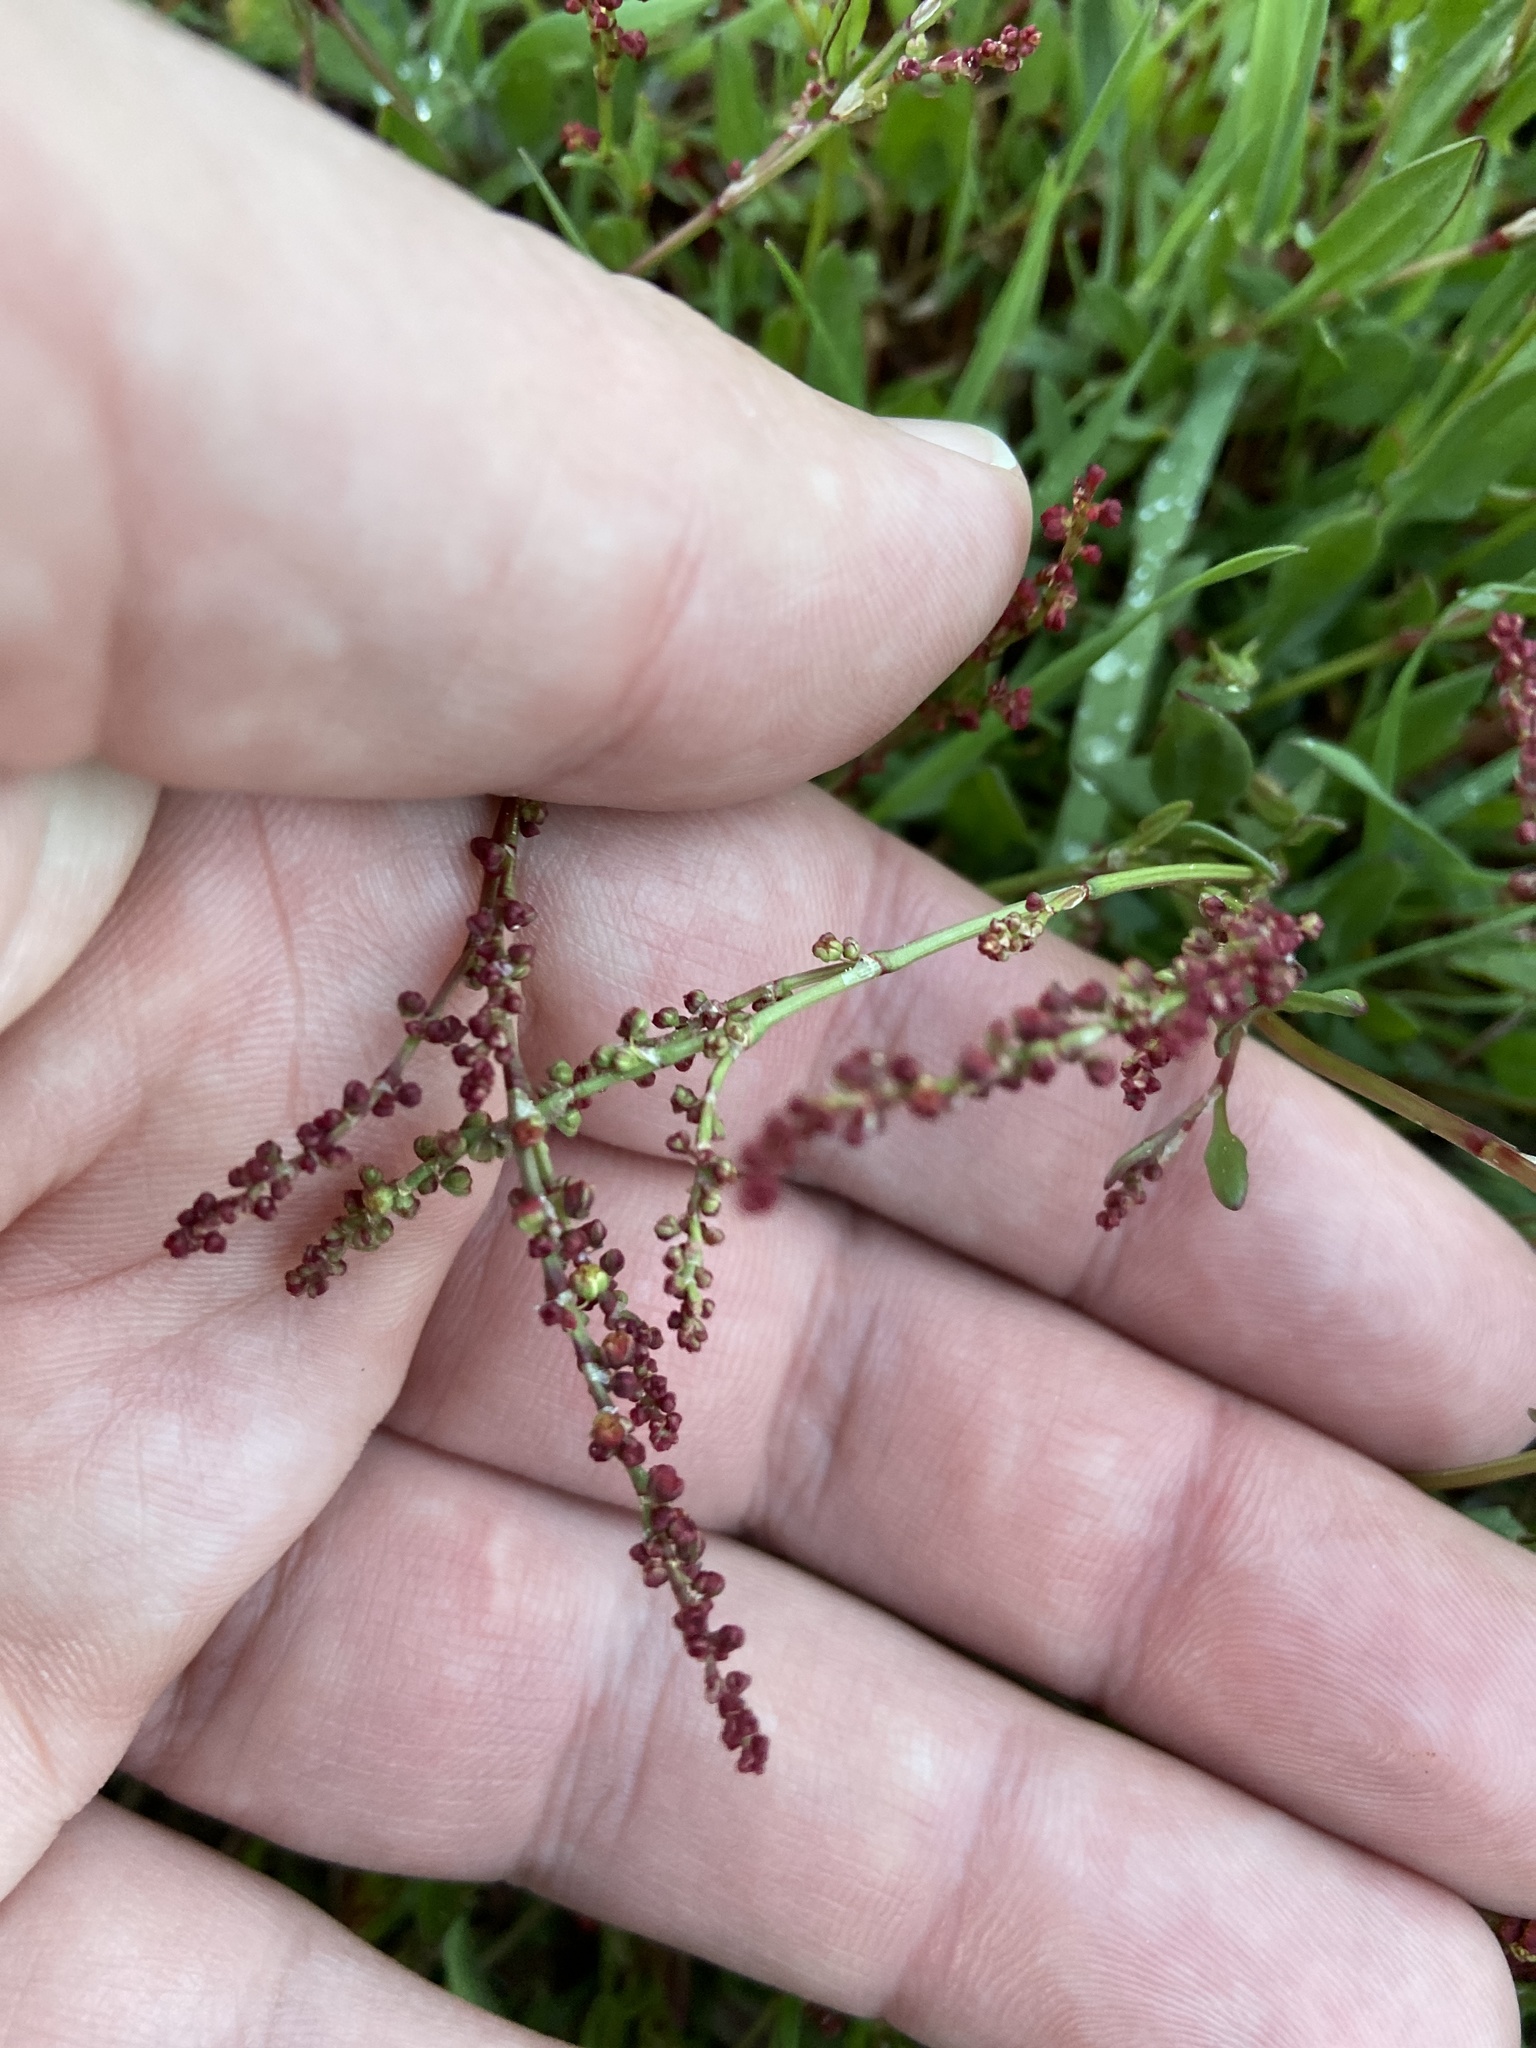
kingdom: Plantae
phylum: Tracheophyta
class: Magnoliopsida
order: Caryophyllales
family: Polygonaceae
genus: Rumex
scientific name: Rumex acetosella
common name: Common sheep sorrel
